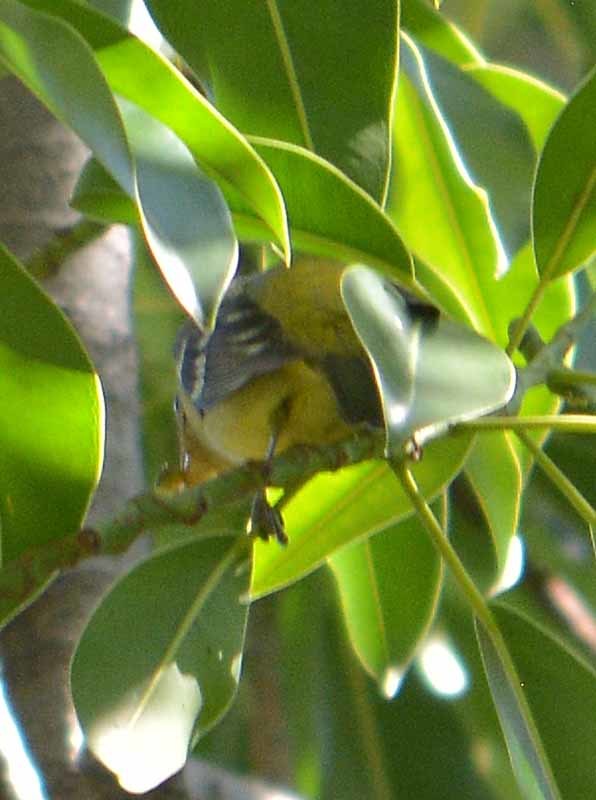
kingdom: Animalia
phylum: Chordata
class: Aves
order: Passeriformes
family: Cardinalidae
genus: Piranga
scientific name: Piranga ludoviciana
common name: Western tanager
